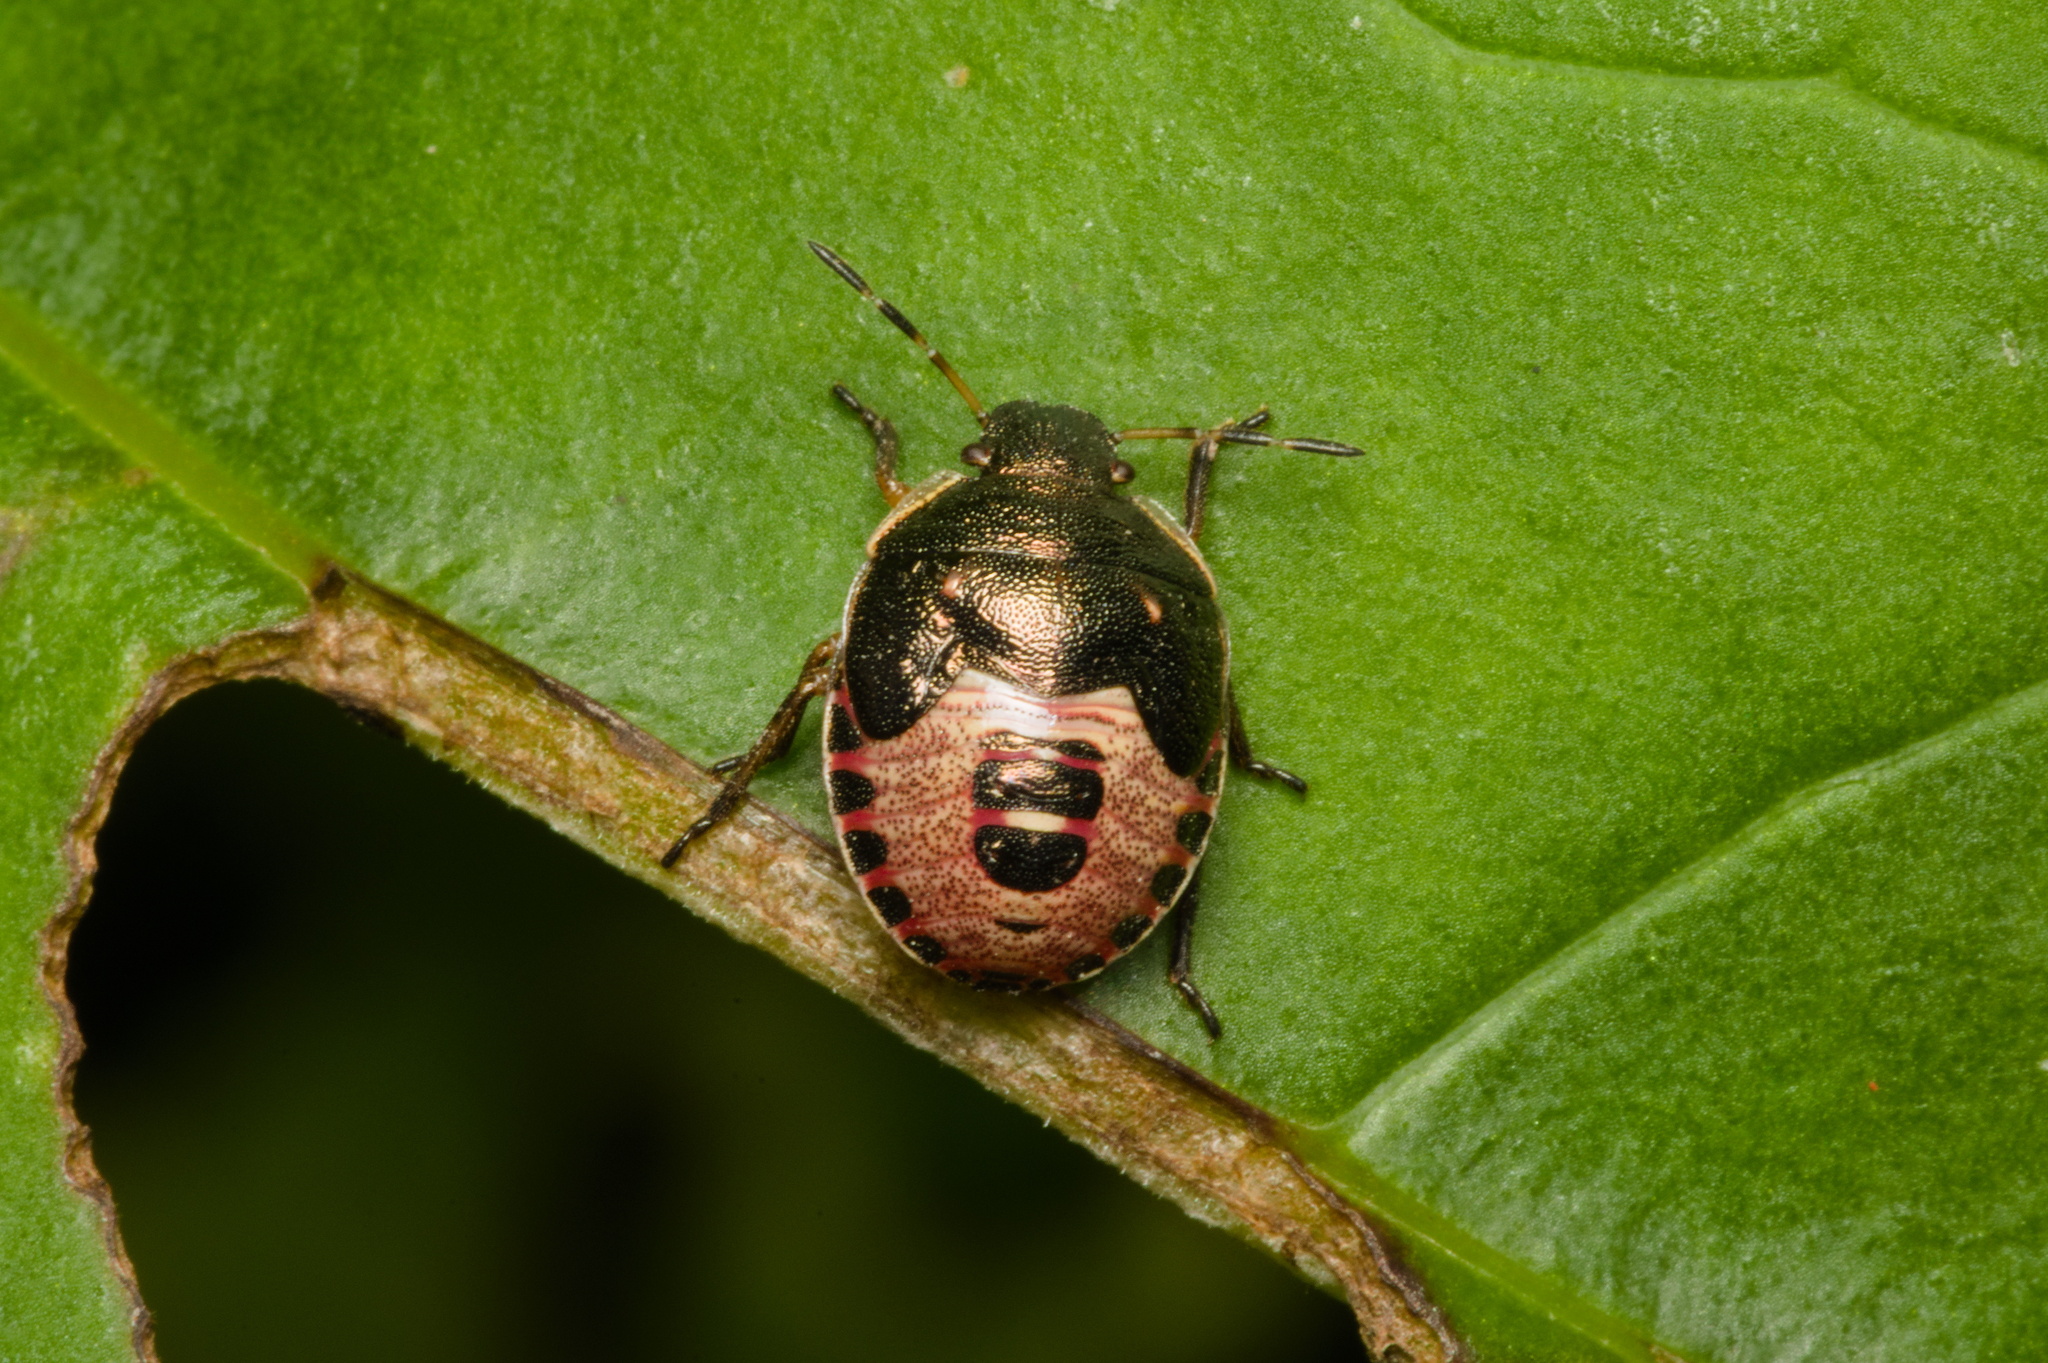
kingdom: Animalia
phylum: Arthropoda
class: Insecta
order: Hemiptera
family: Pentatomidae
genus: Holcostethus
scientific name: Holcostethus sphacelatus
